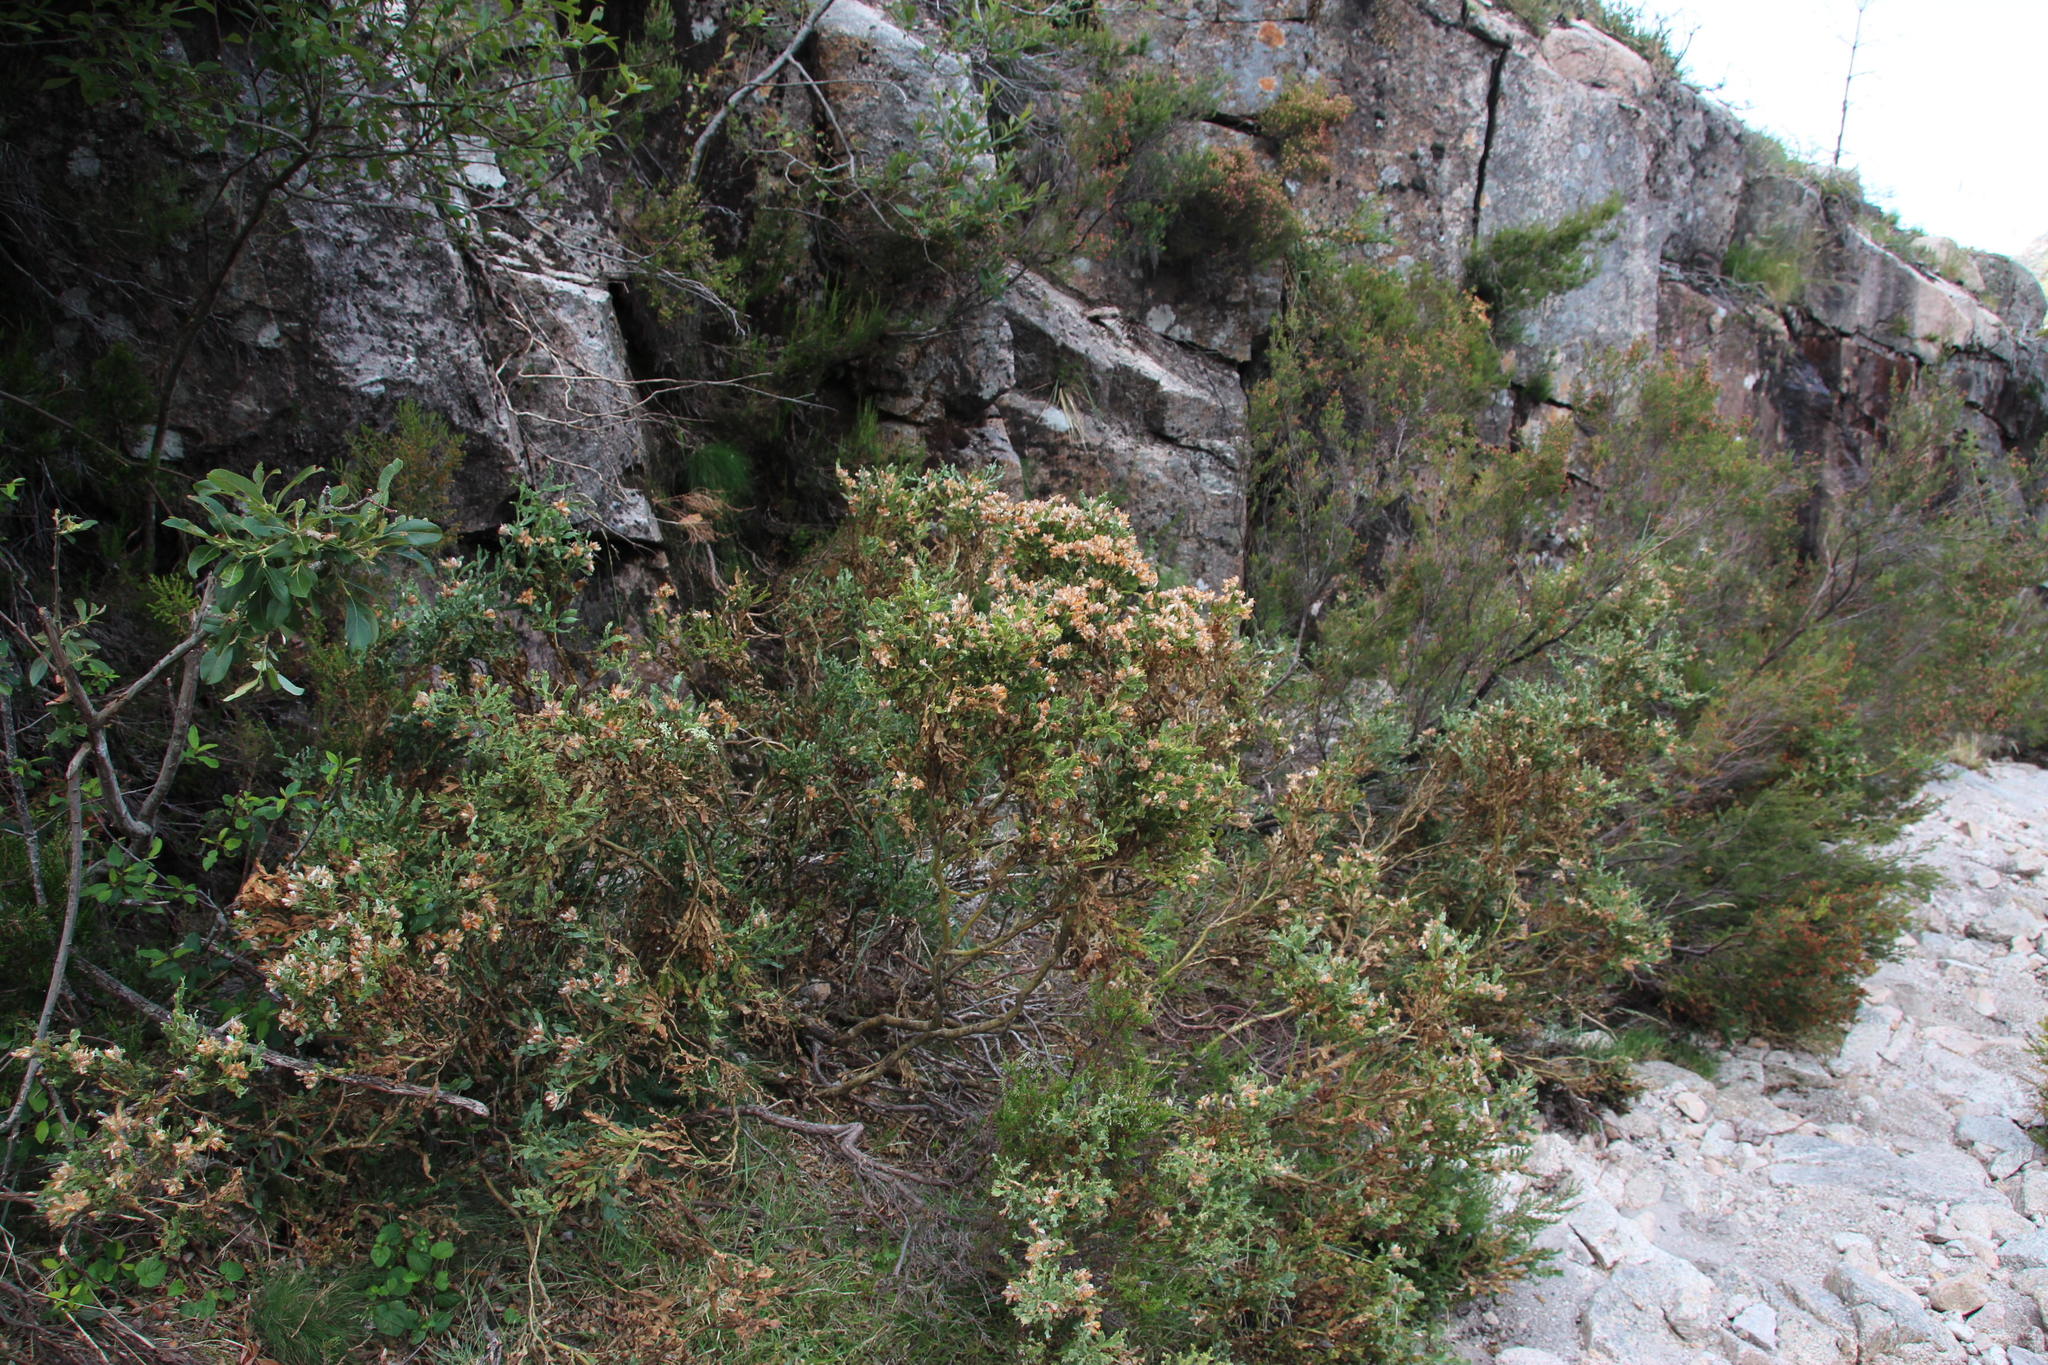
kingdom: Plantae
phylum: Tracheophyta
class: Magnoliopsida
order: Fabales
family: Fabaceae
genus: Genista
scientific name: Genista tridentata
